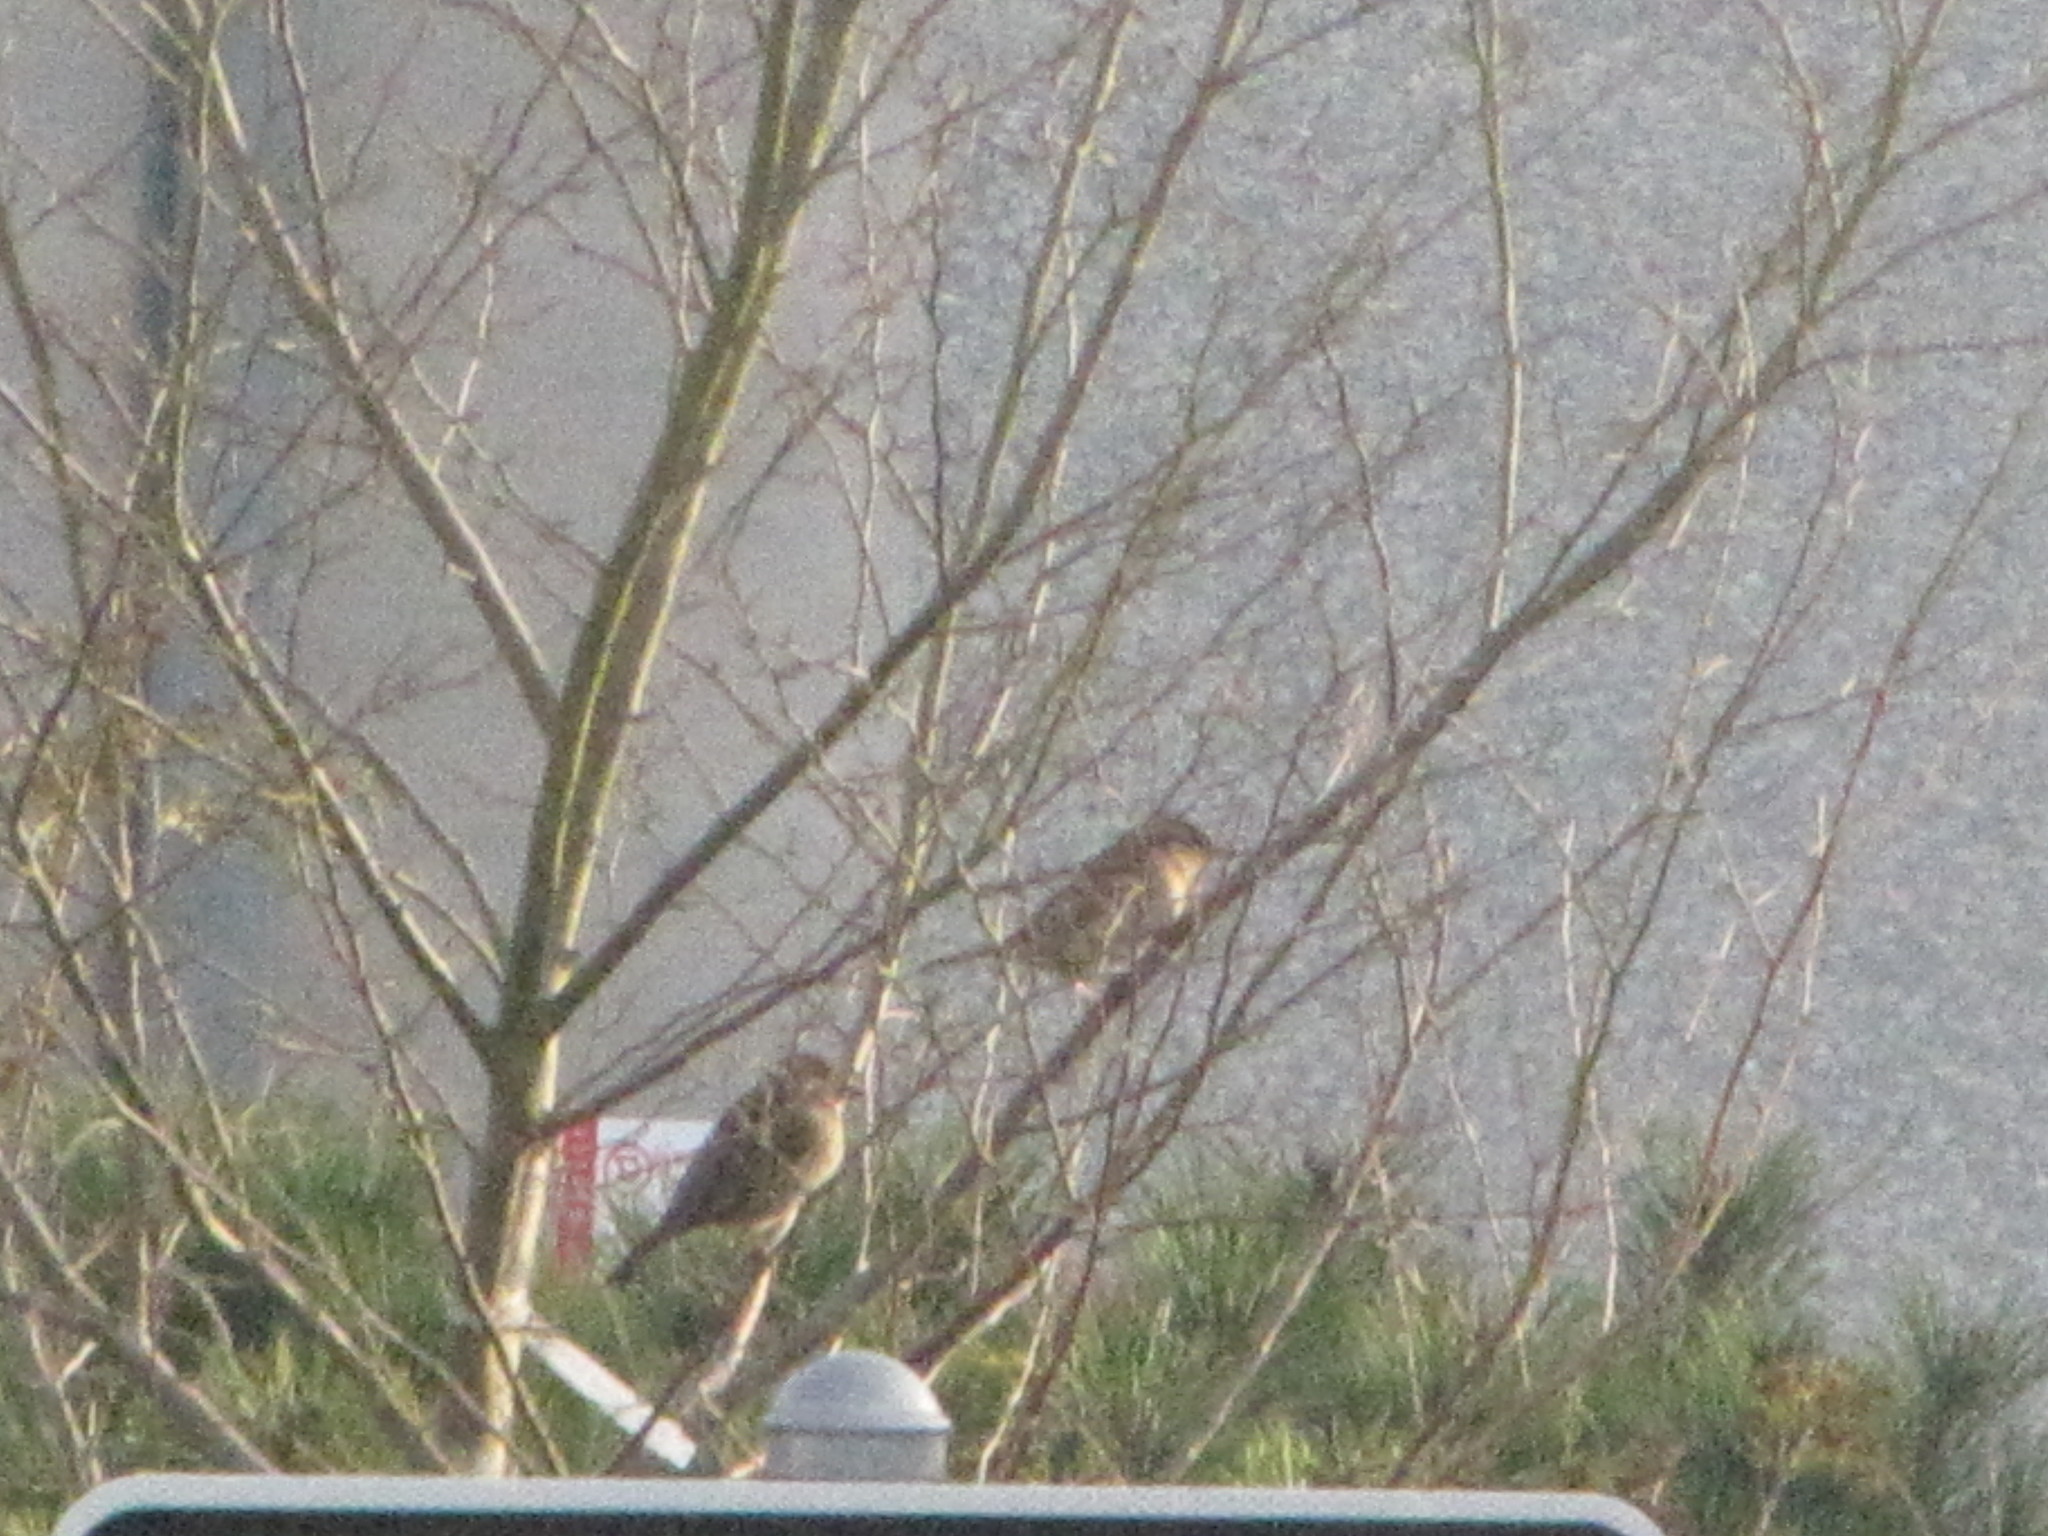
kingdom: Animalia
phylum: Chordata
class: Aves
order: Passeriformes
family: Passeridae
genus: Passer
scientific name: Passer domesticus
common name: House sparrow
